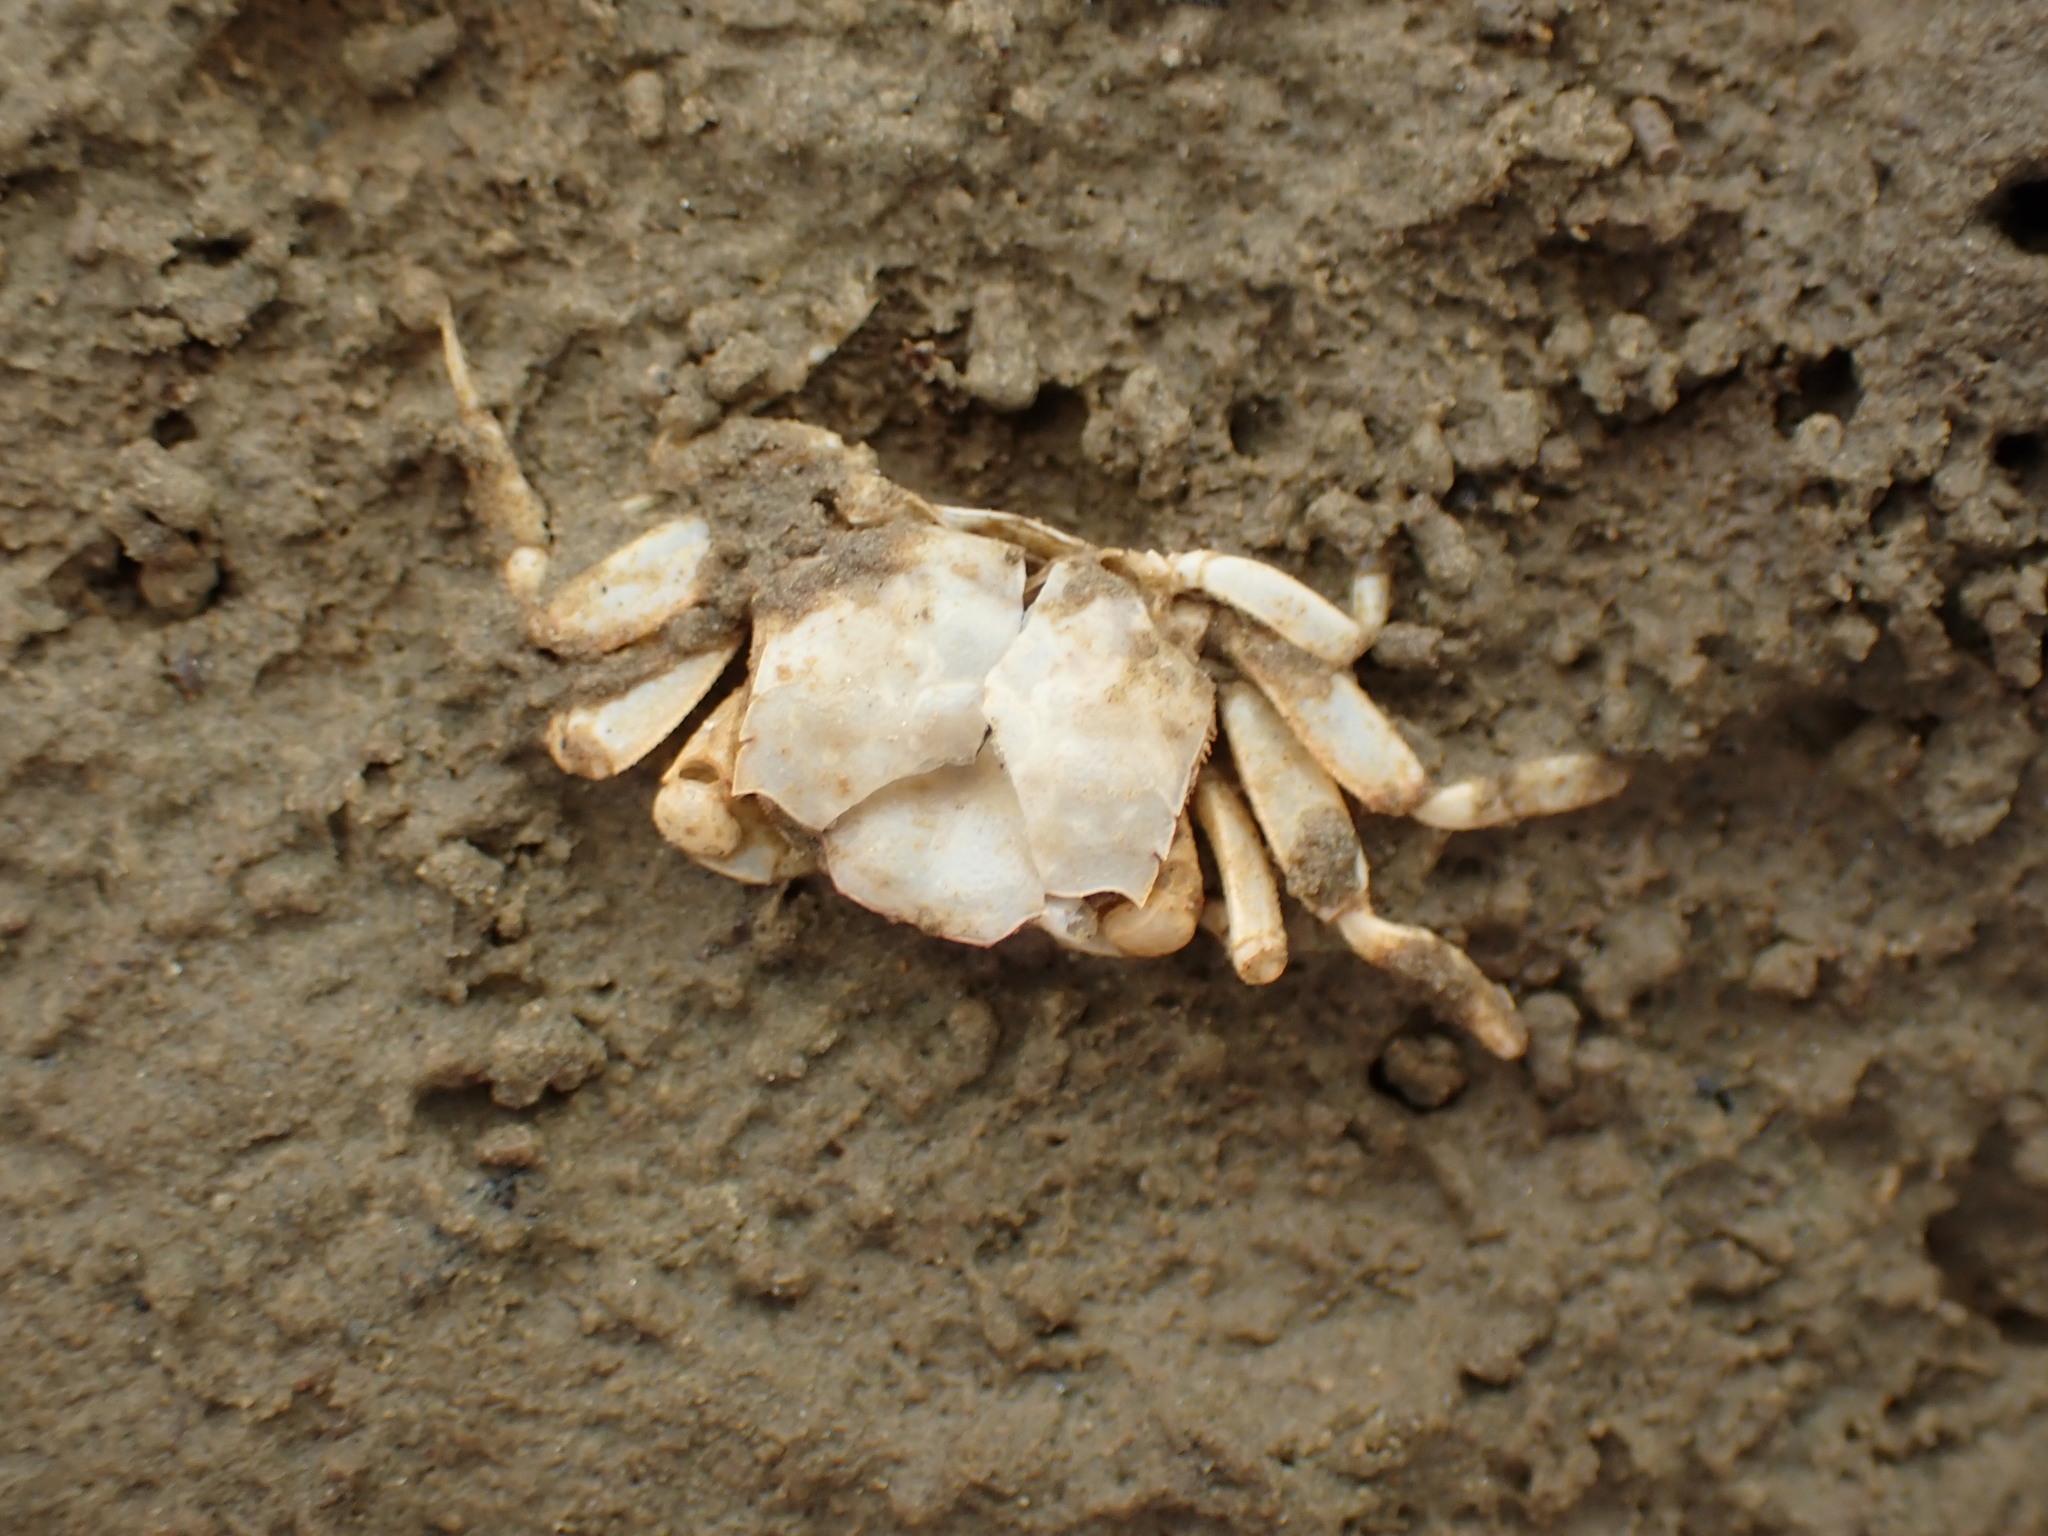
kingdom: Animalia
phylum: Arthropoda
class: Malacostraca
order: Decapoda
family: Macrophthalmidae
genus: Hemiplax
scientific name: Hemiplax hirtipes
